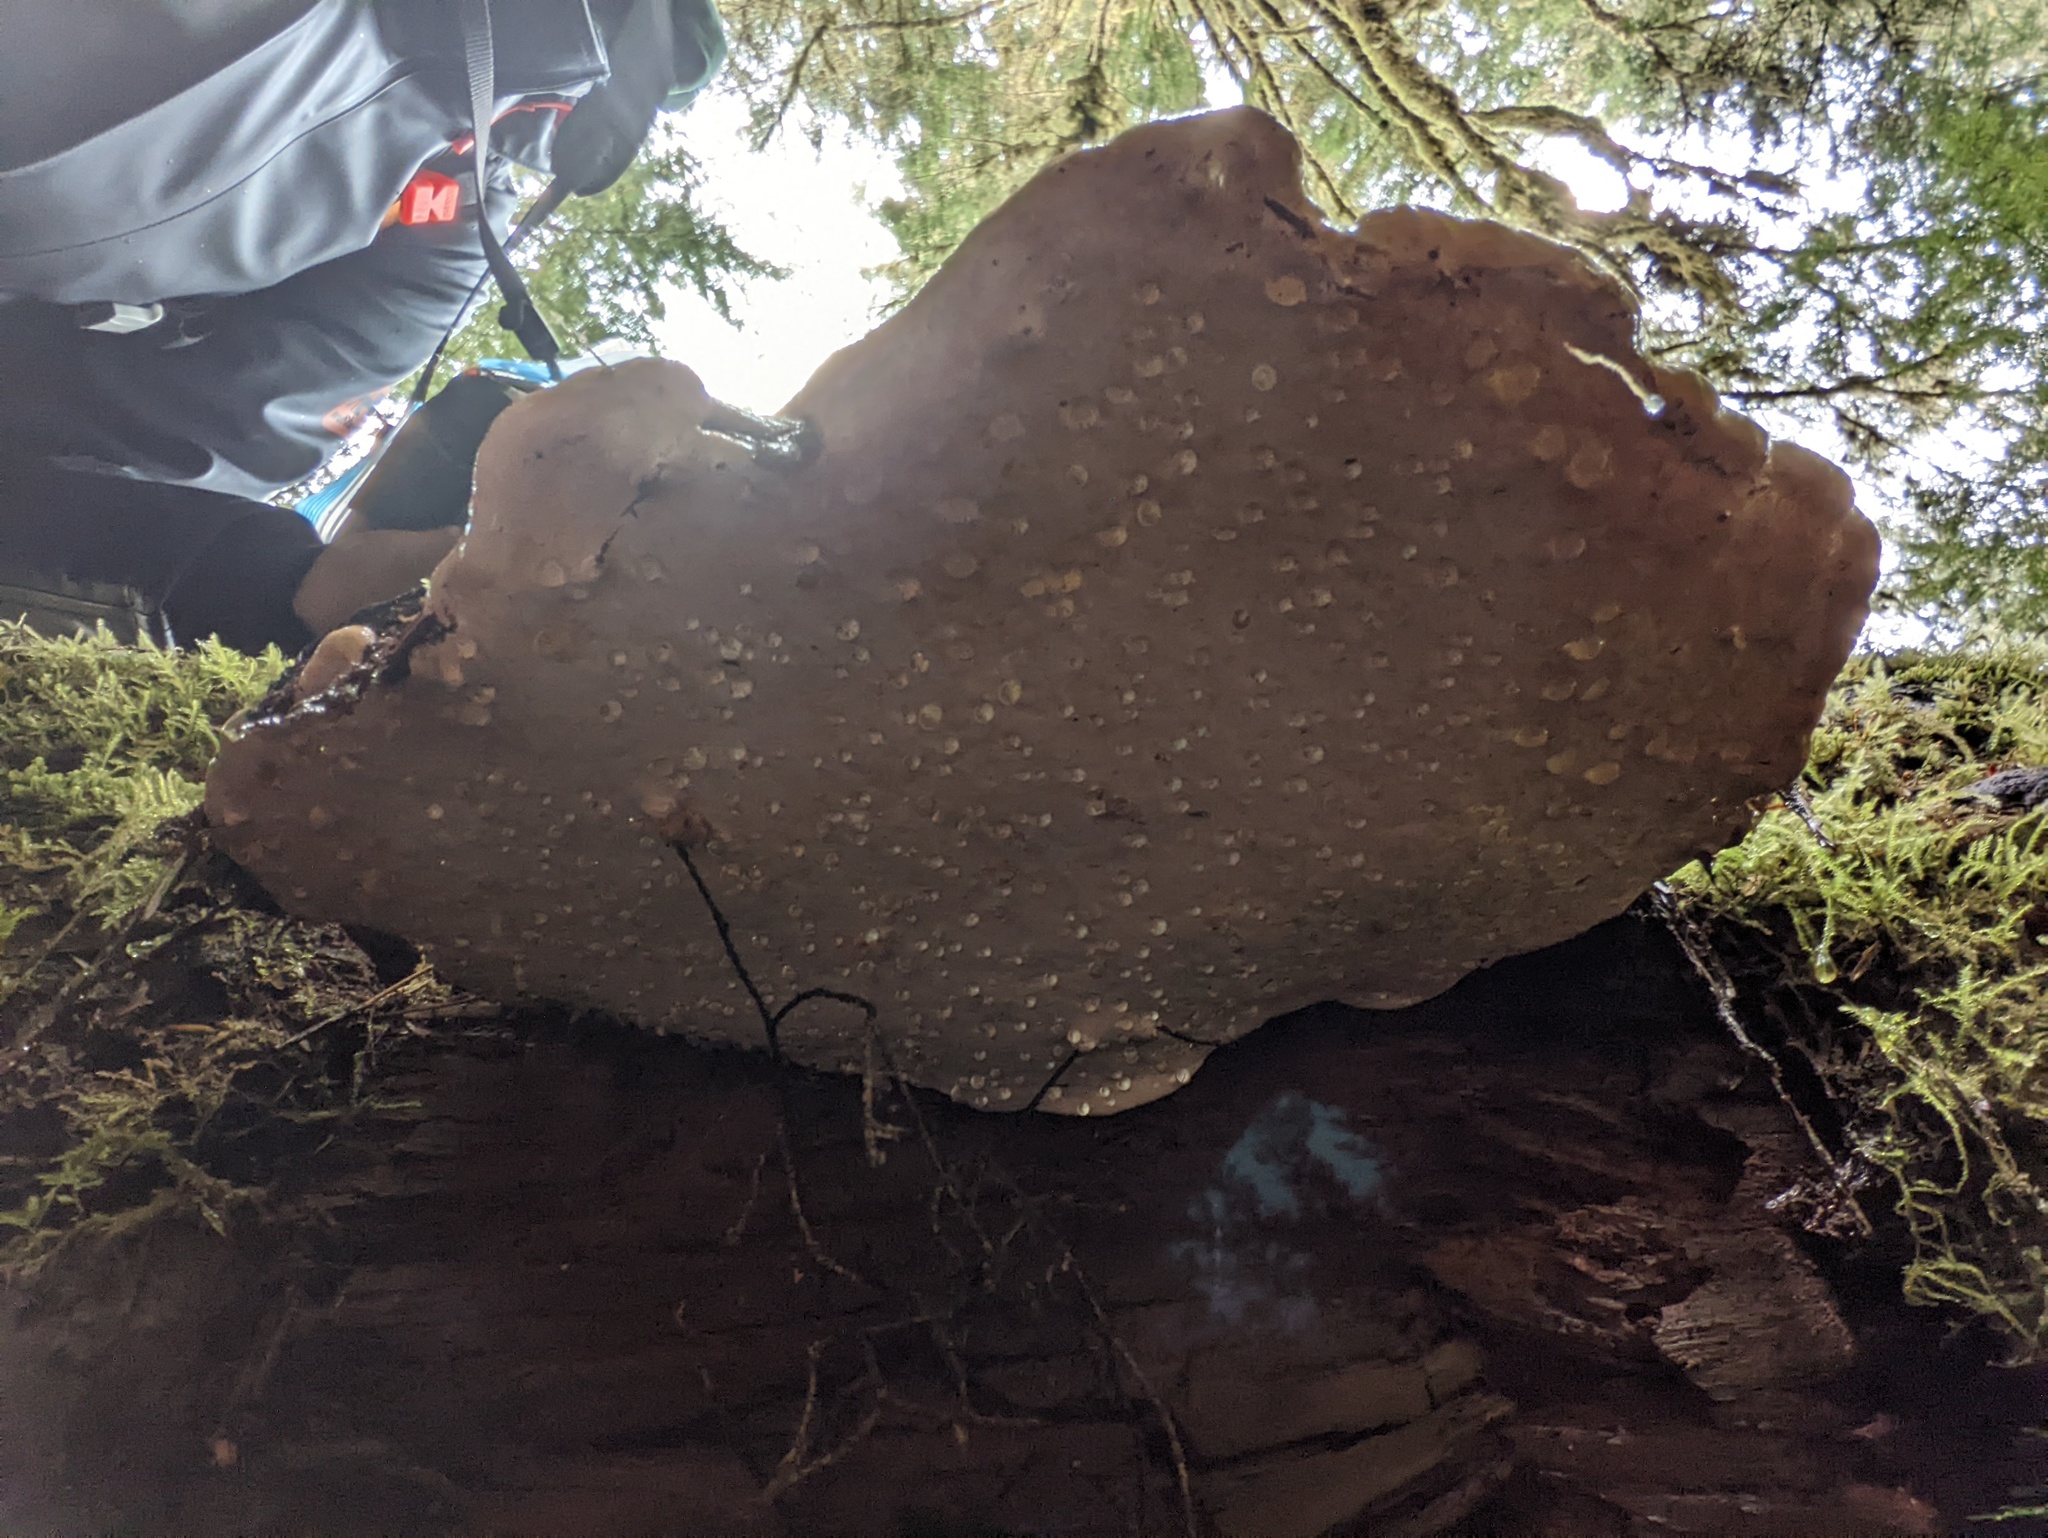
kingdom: Fungi
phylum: Basidiomycota
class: Agaricomycetes
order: Polyporales
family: Fomitopsidaceae
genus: Fomitopsis
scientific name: Fomitopsis mounceae
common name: Northern red belt
